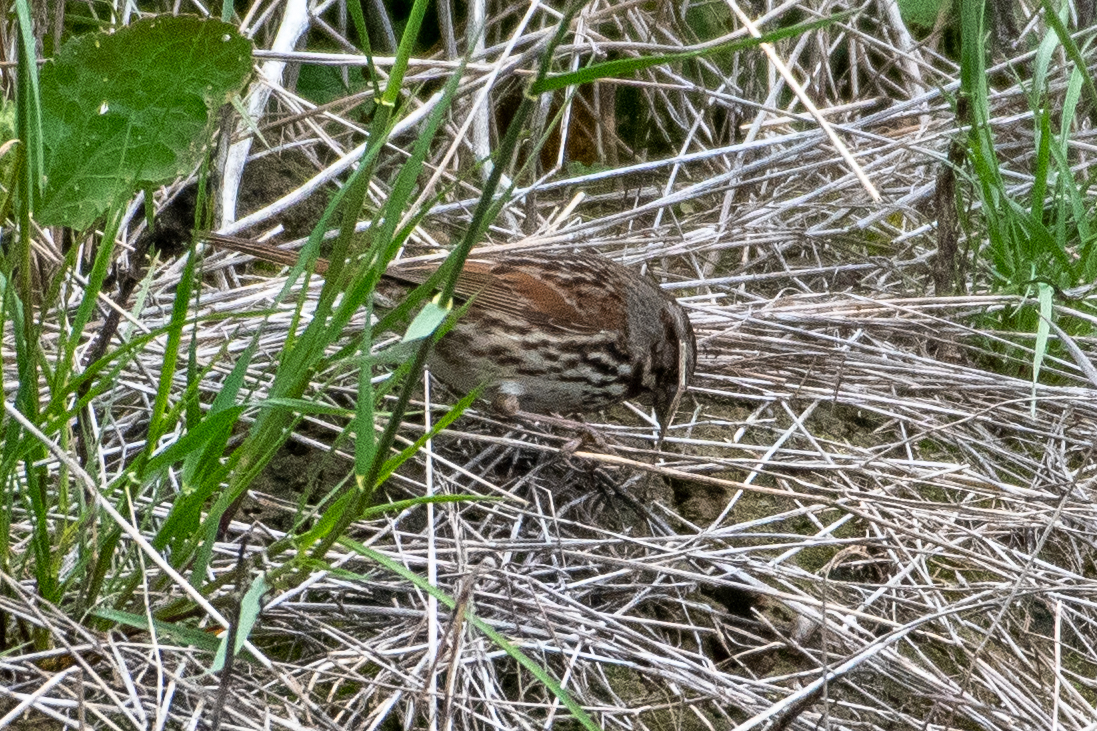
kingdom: Animalia
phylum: Chordata
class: Aves
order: Passeriformes
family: Passerellidae
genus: Melospiza
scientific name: Melospiza melodia
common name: Song sparrow
